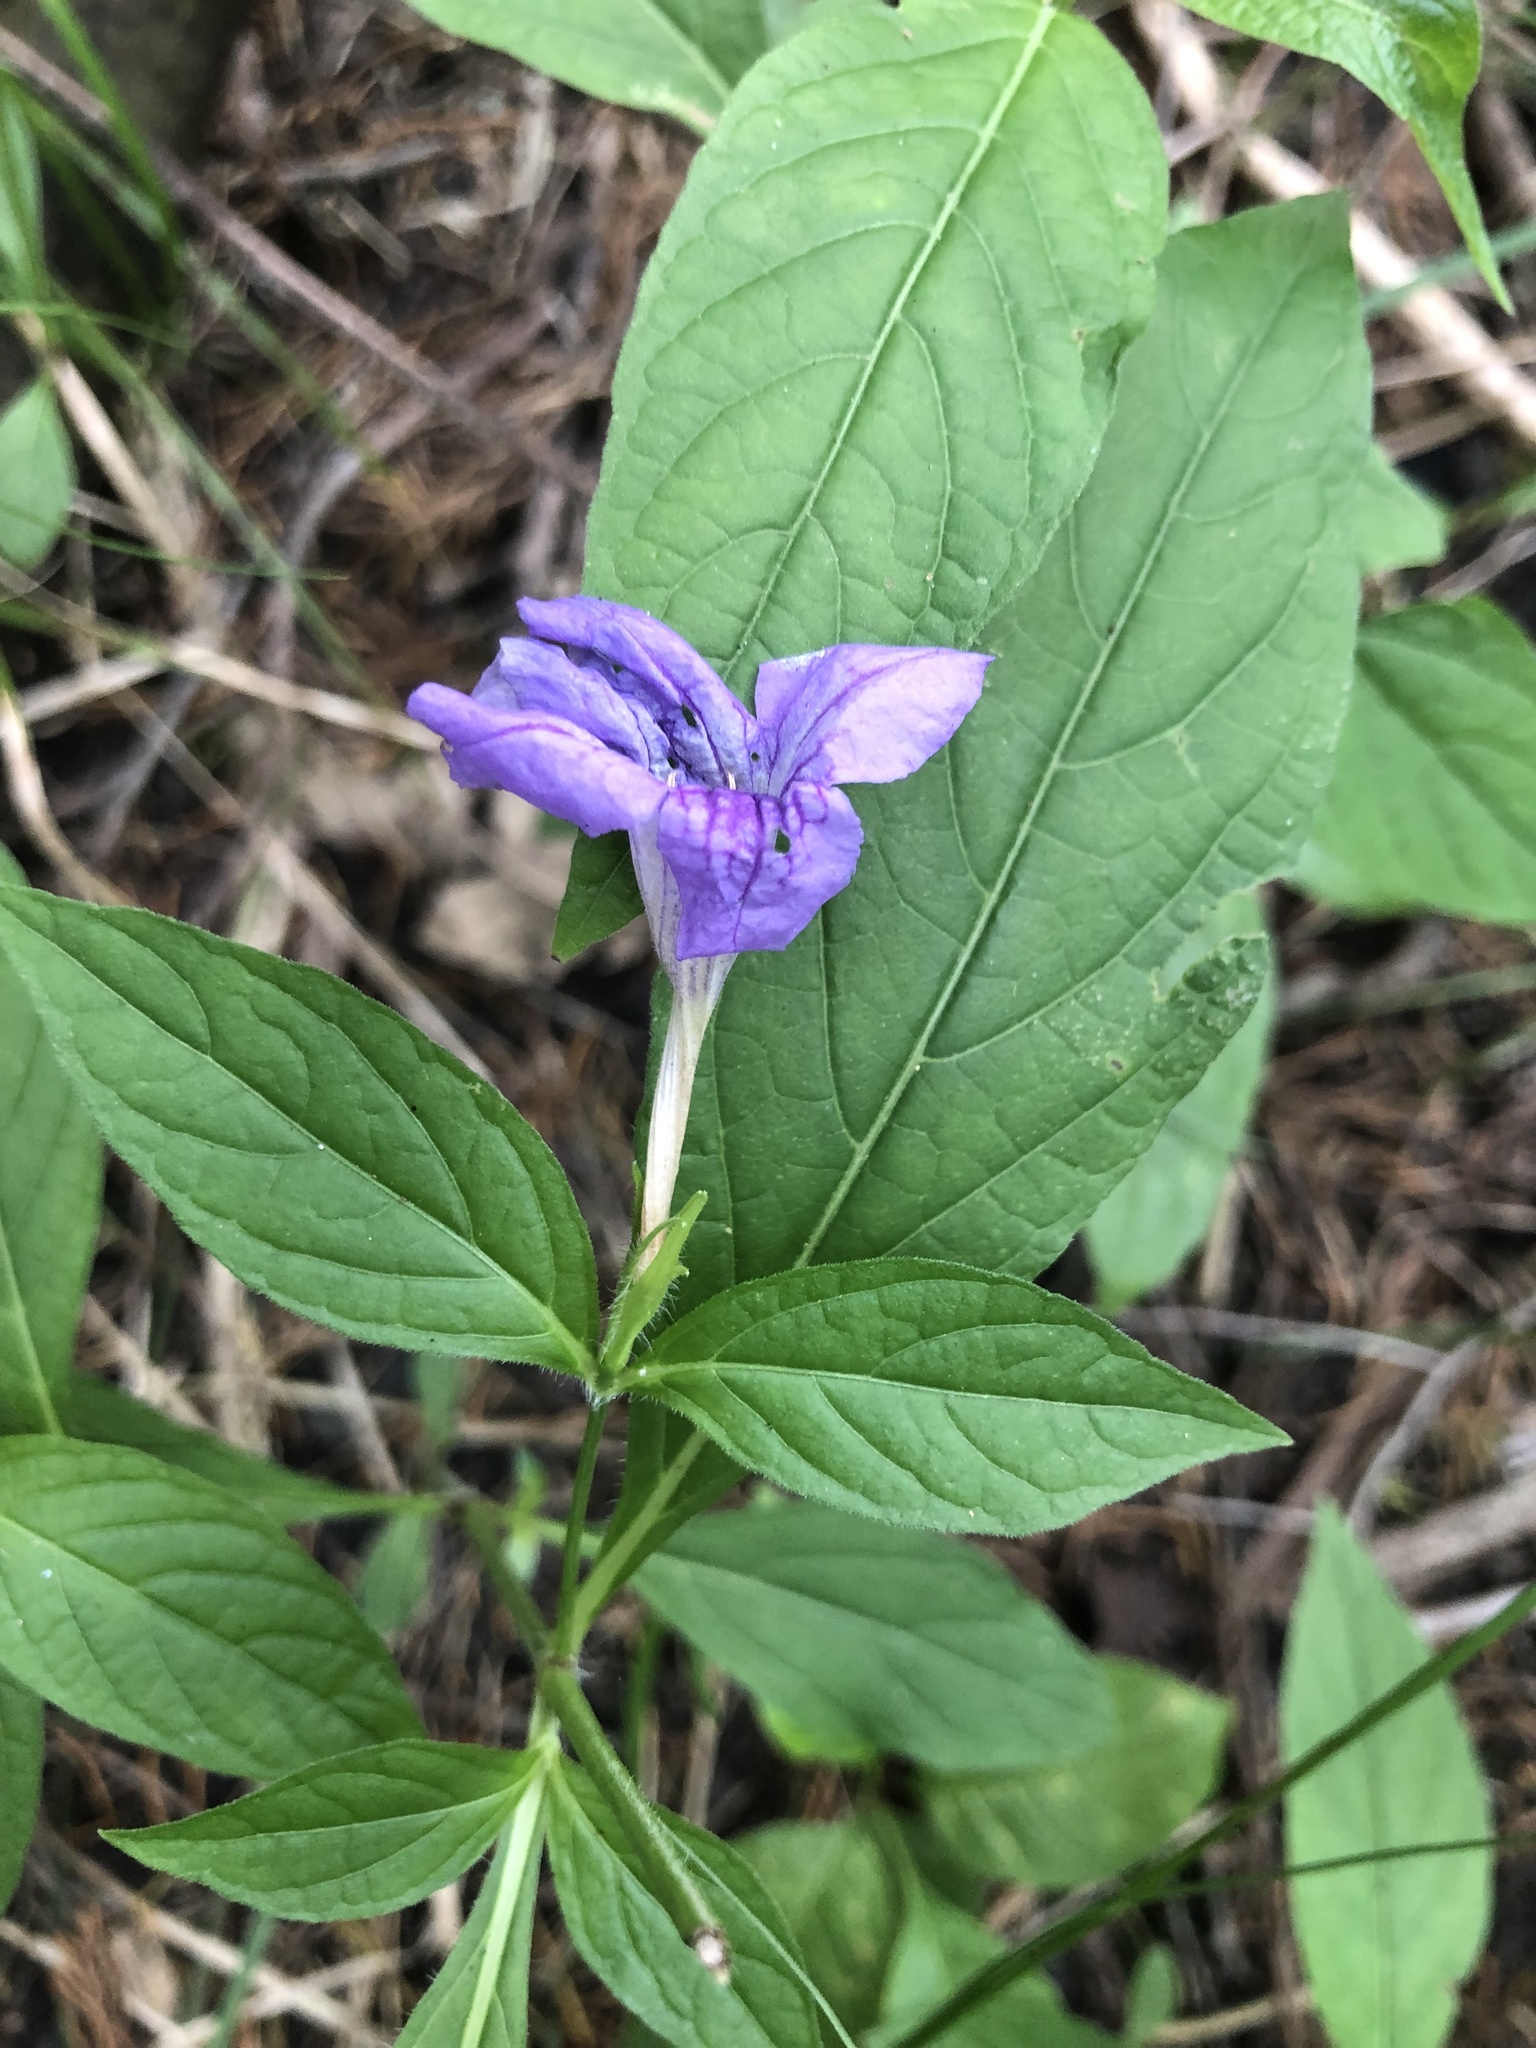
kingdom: Plantae
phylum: Tracheophyta
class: Magnoliopsida
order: Lamiales
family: Acanthaceae
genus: Ruellia
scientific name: Ruellia strepens
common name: Limestone wild petunia
